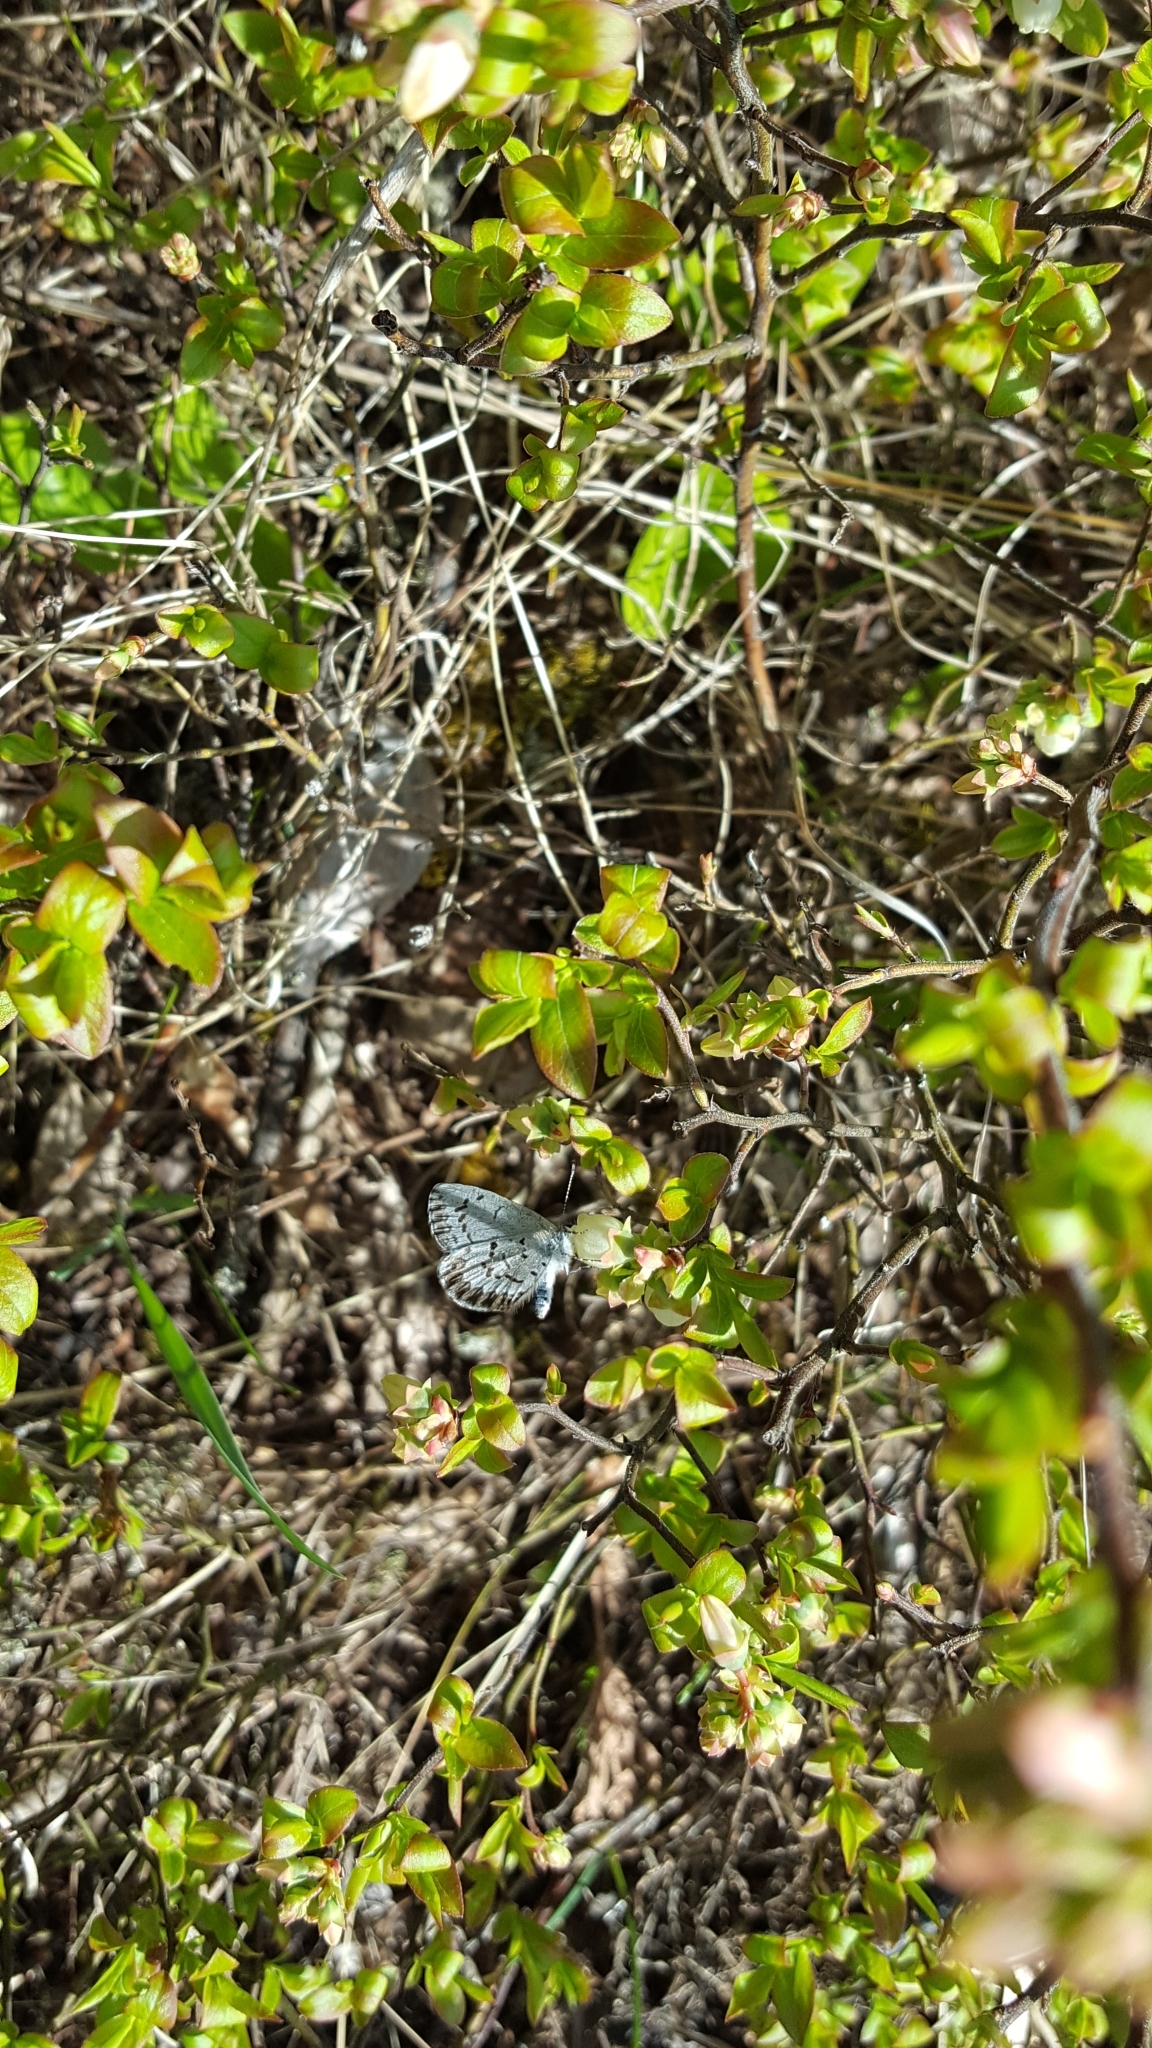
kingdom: Animalia
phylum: Arthropoda
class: Insecta
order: Lepidoptera
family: Lycaenidae
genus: Celastrina
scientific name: Celastrina lucia
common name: Lucia azure
